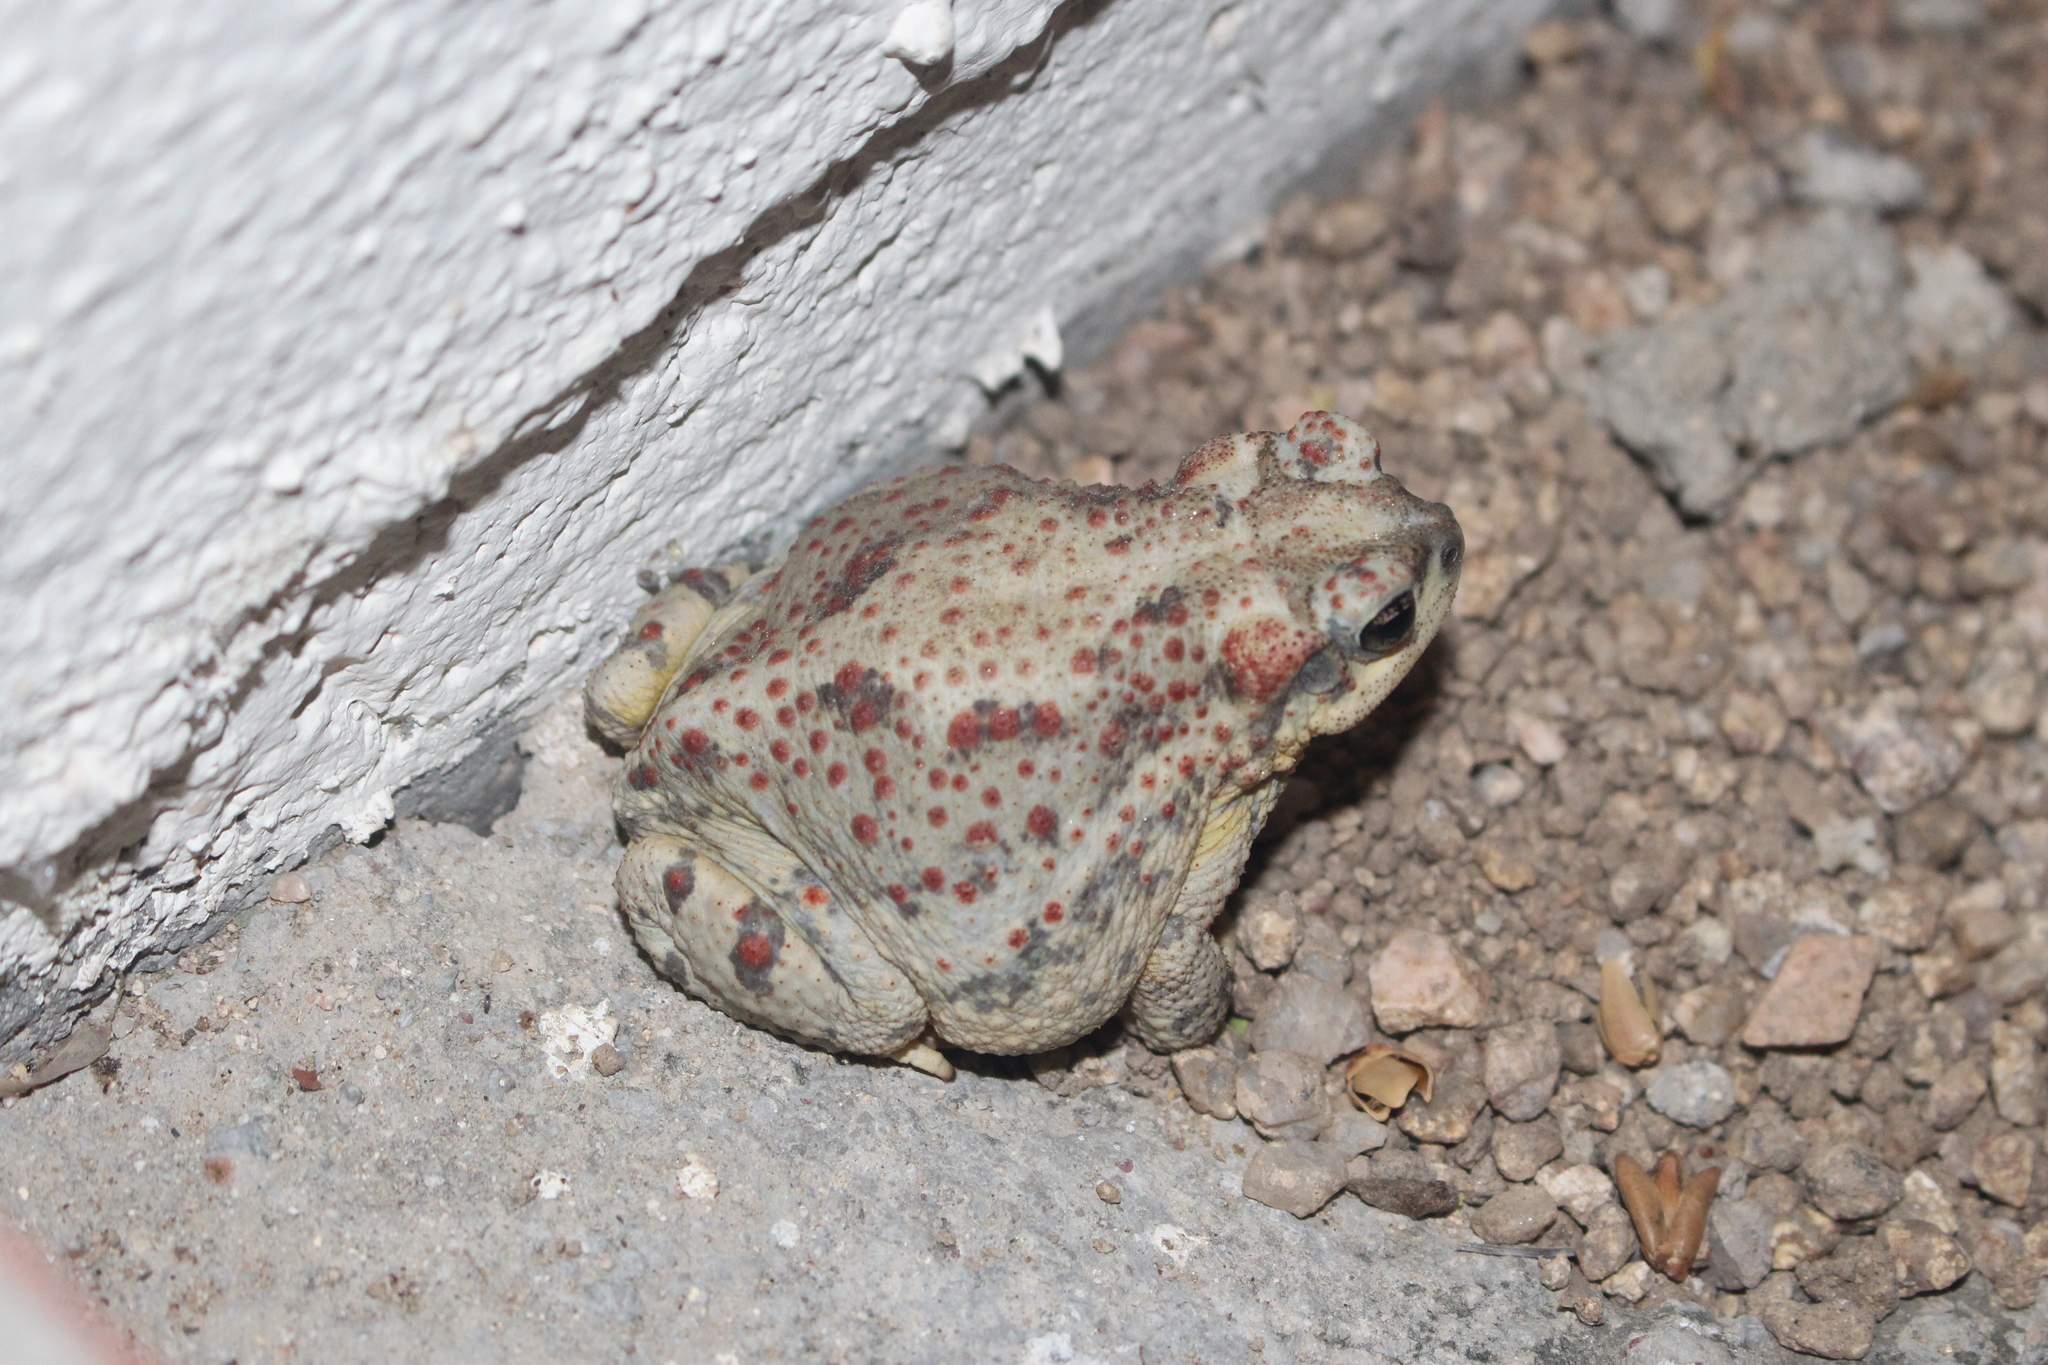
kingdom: Animalia
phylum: Chordata
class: Amphibia
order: Anura
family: Bufonidae
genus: Anaxyrus
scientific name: Anaxyrus punctatus
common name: Red-spotted toad
